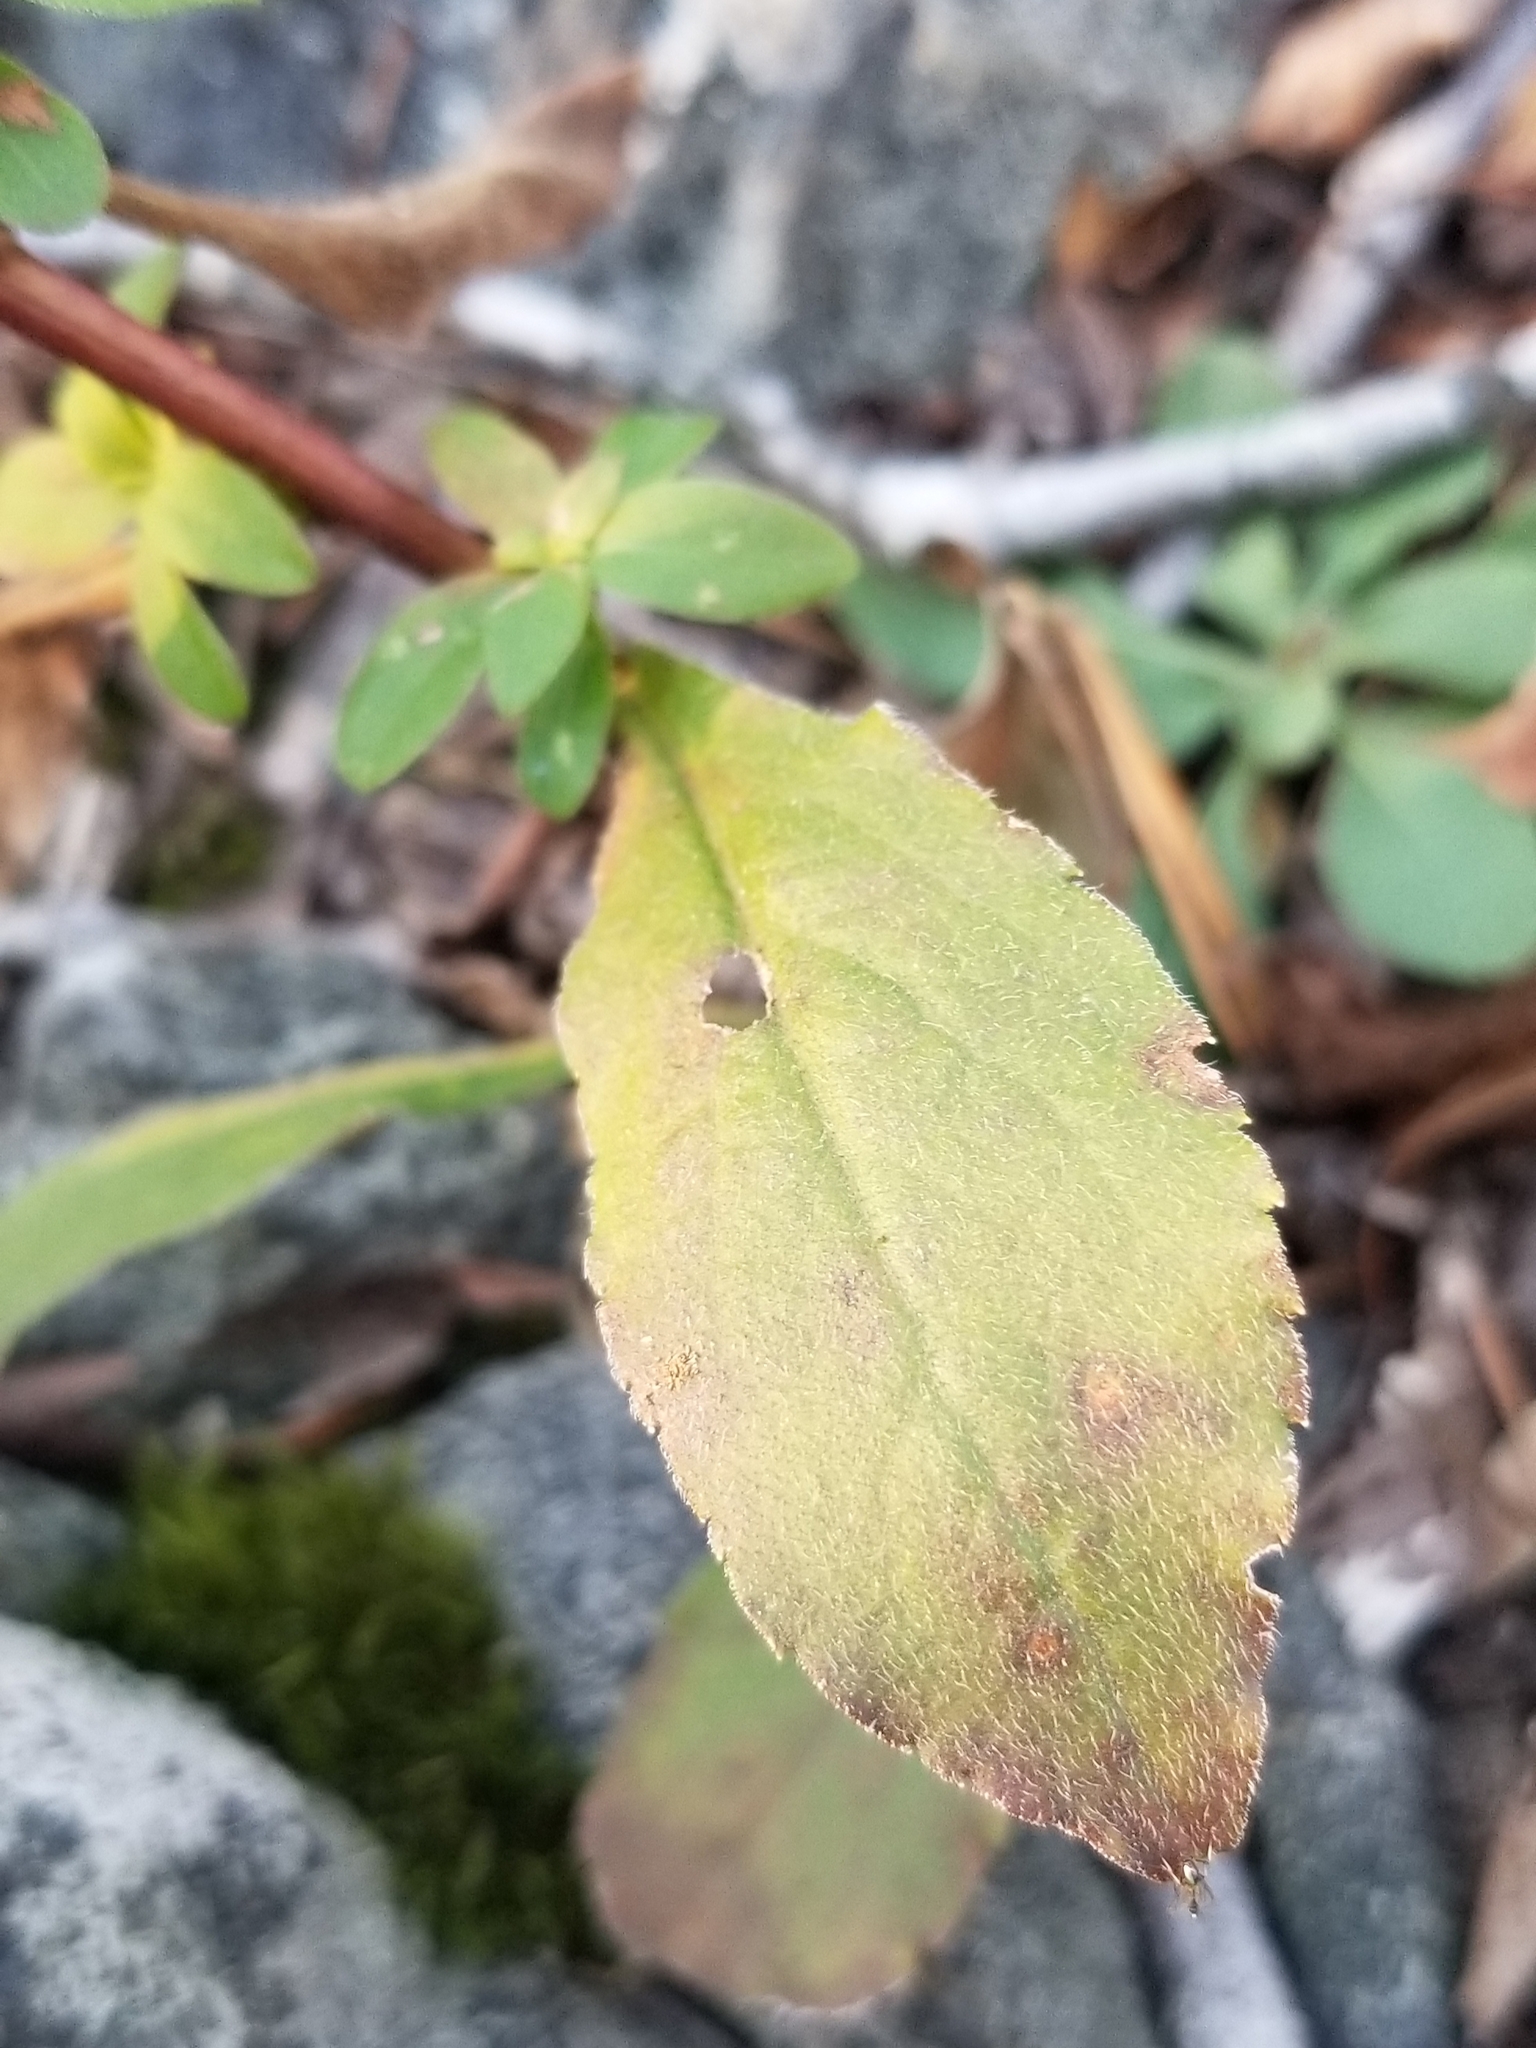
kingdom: Plantae
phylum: Tracheophyta
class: Magnoliopsida
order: Asterales
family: Asteraceae
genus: Solidago
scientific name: Solidago bicolor
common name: Silverrod
